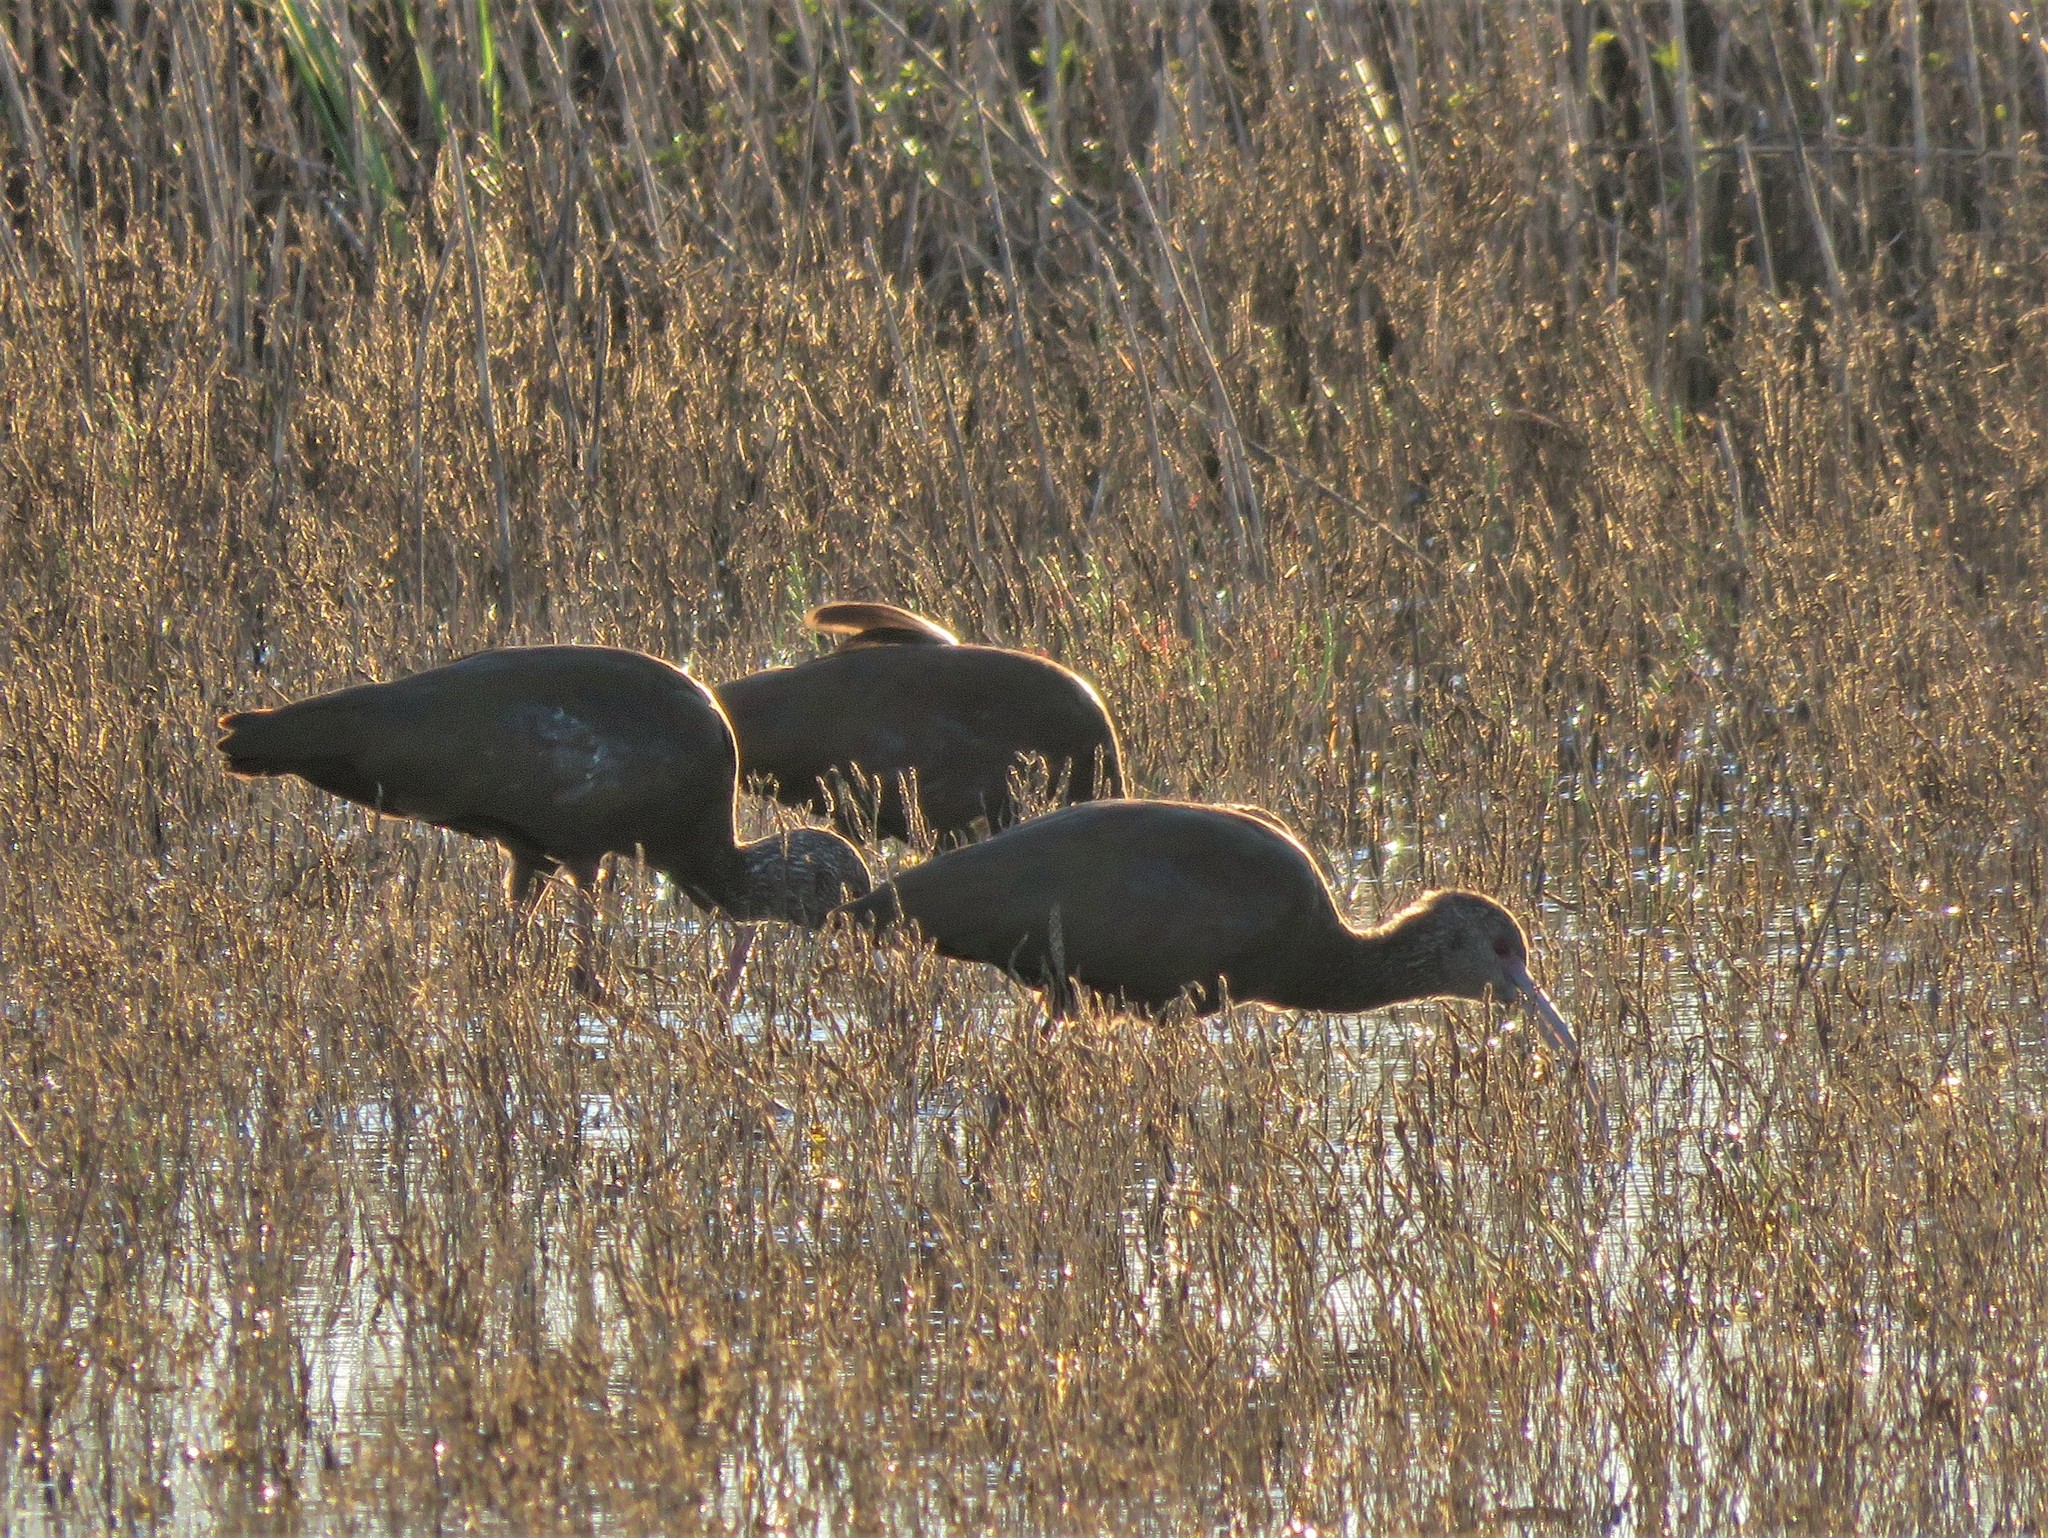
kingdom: Animalia
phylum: Chordata
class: Aves
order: Pelecaniformes
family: Threskiornithidae
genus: Plegadis
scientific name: Plegadis chihi
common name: White-faced ibis
